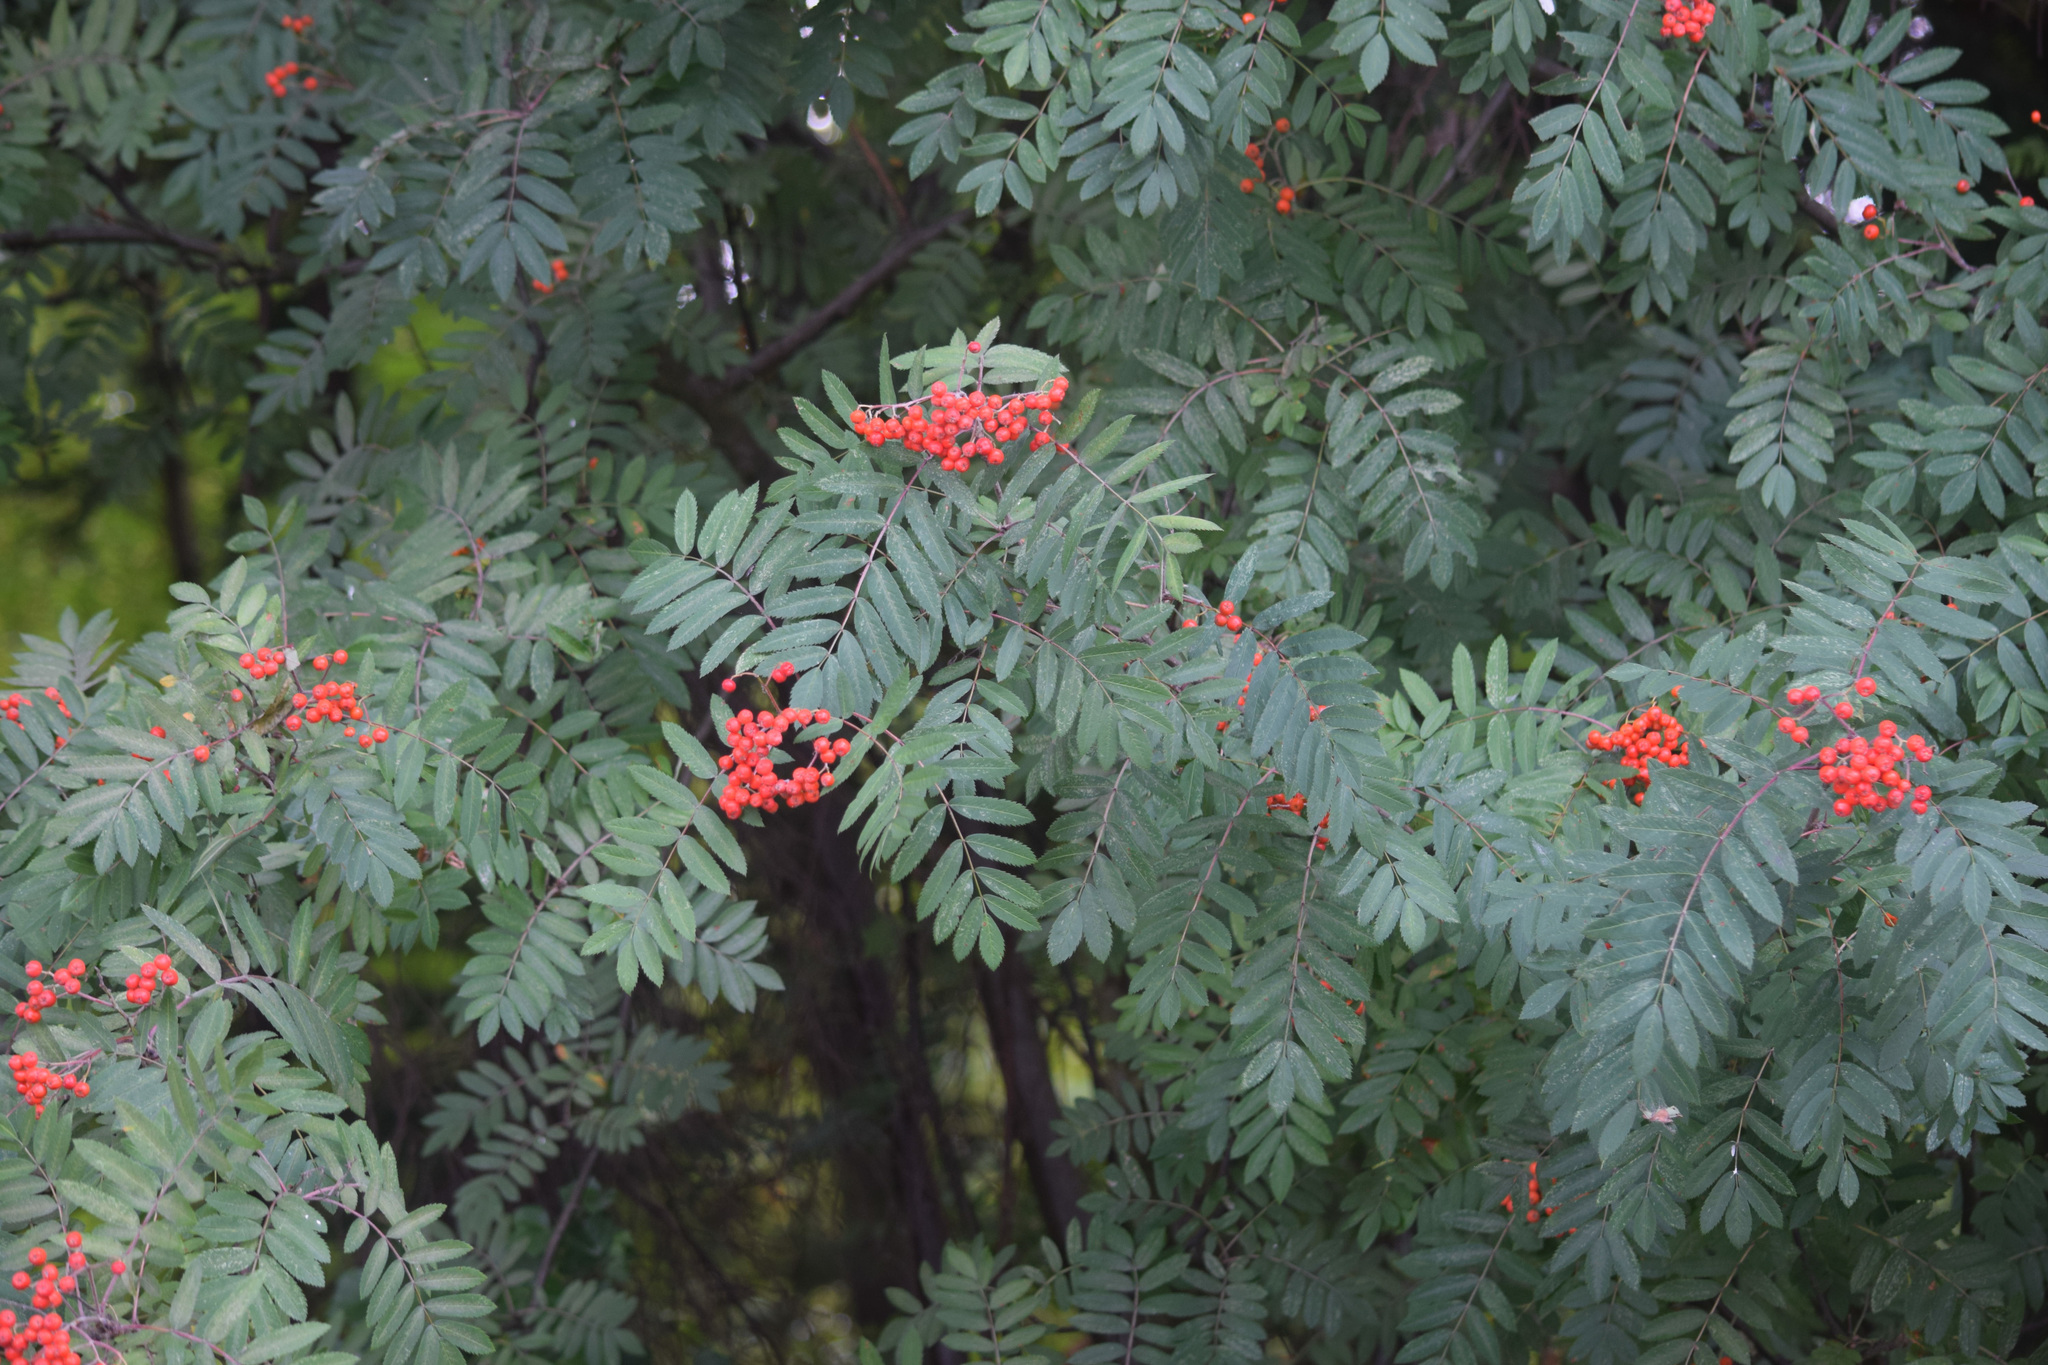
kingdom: Plantae
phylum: Tracheophyta
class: Magnoliopsida
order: Rosales
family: Rosaceae
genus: Sorbus
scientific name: Sorbus aucuparia
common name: Rowan
